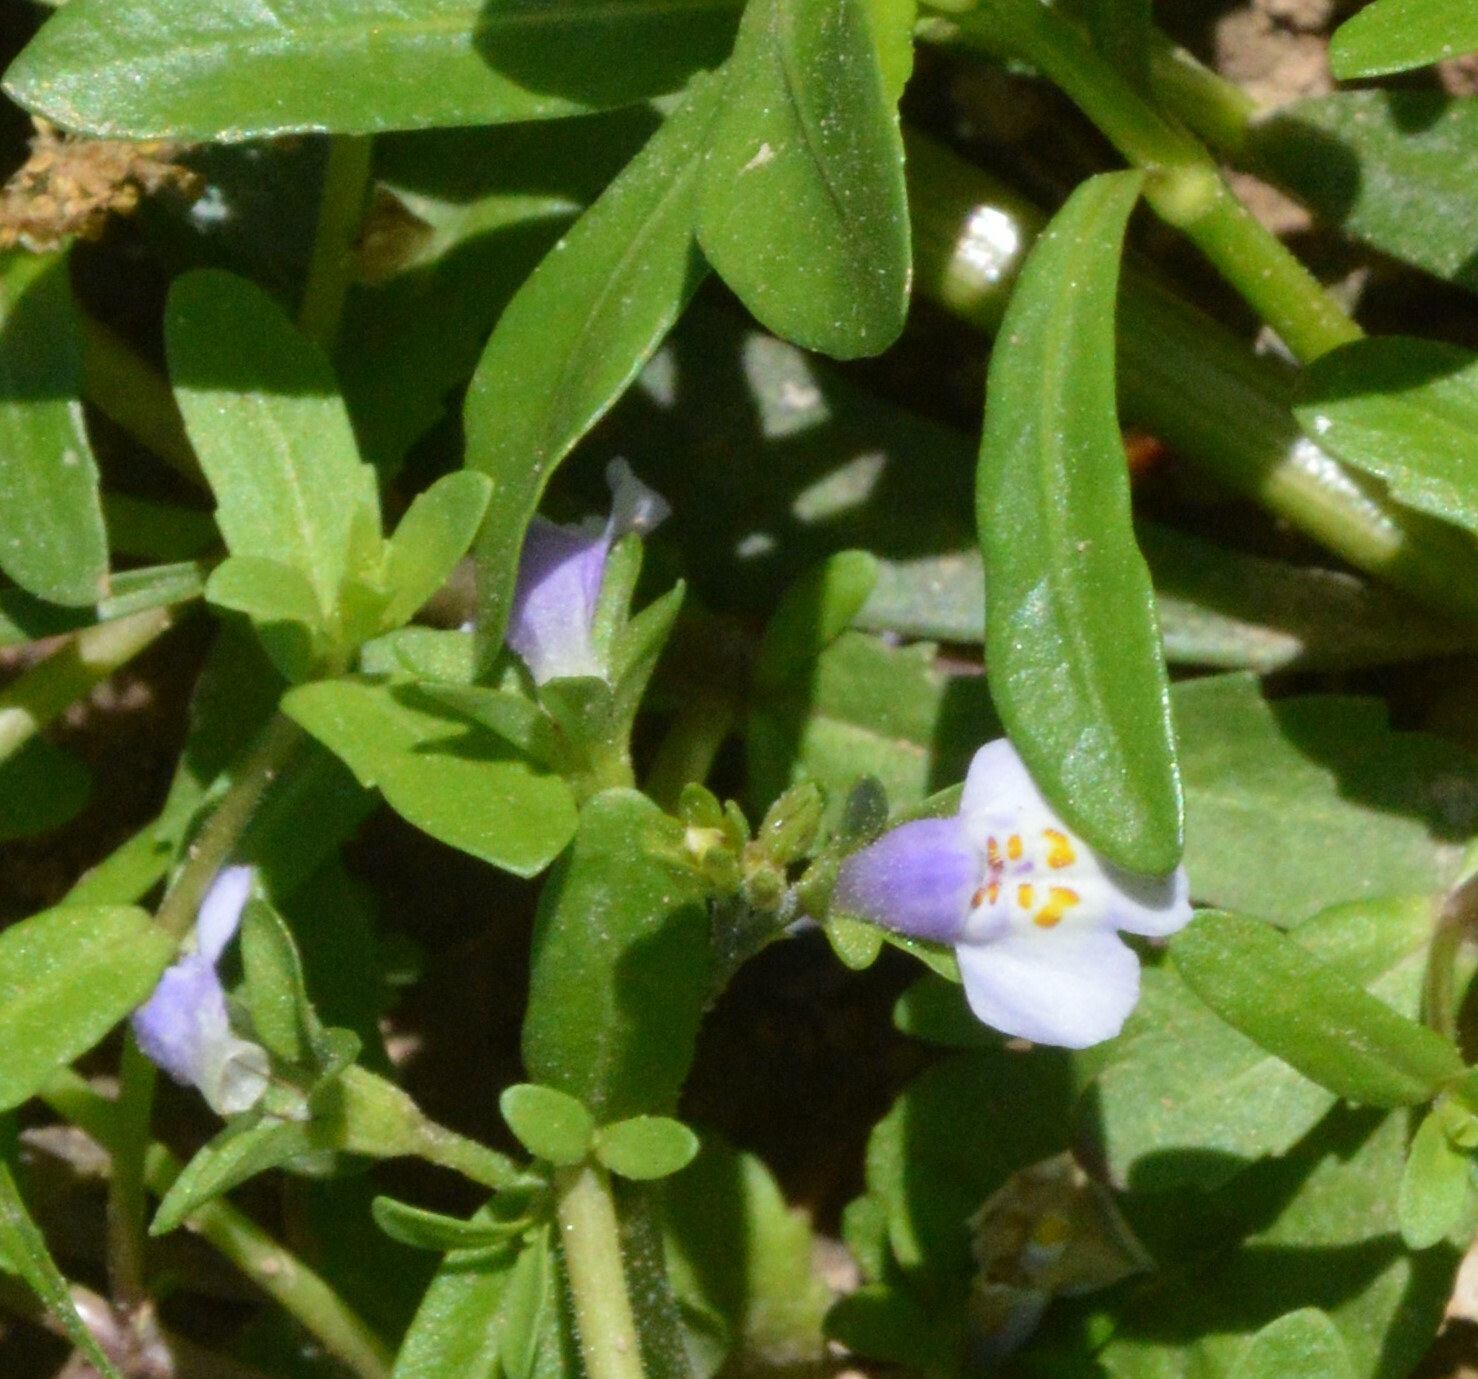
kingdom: Plantae
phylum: Tracheophyta
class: Magnoliopsida
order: Lamiales
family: Mazaceae
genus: Mazus
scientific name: Mazus pumilus
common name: Japanese mazus
